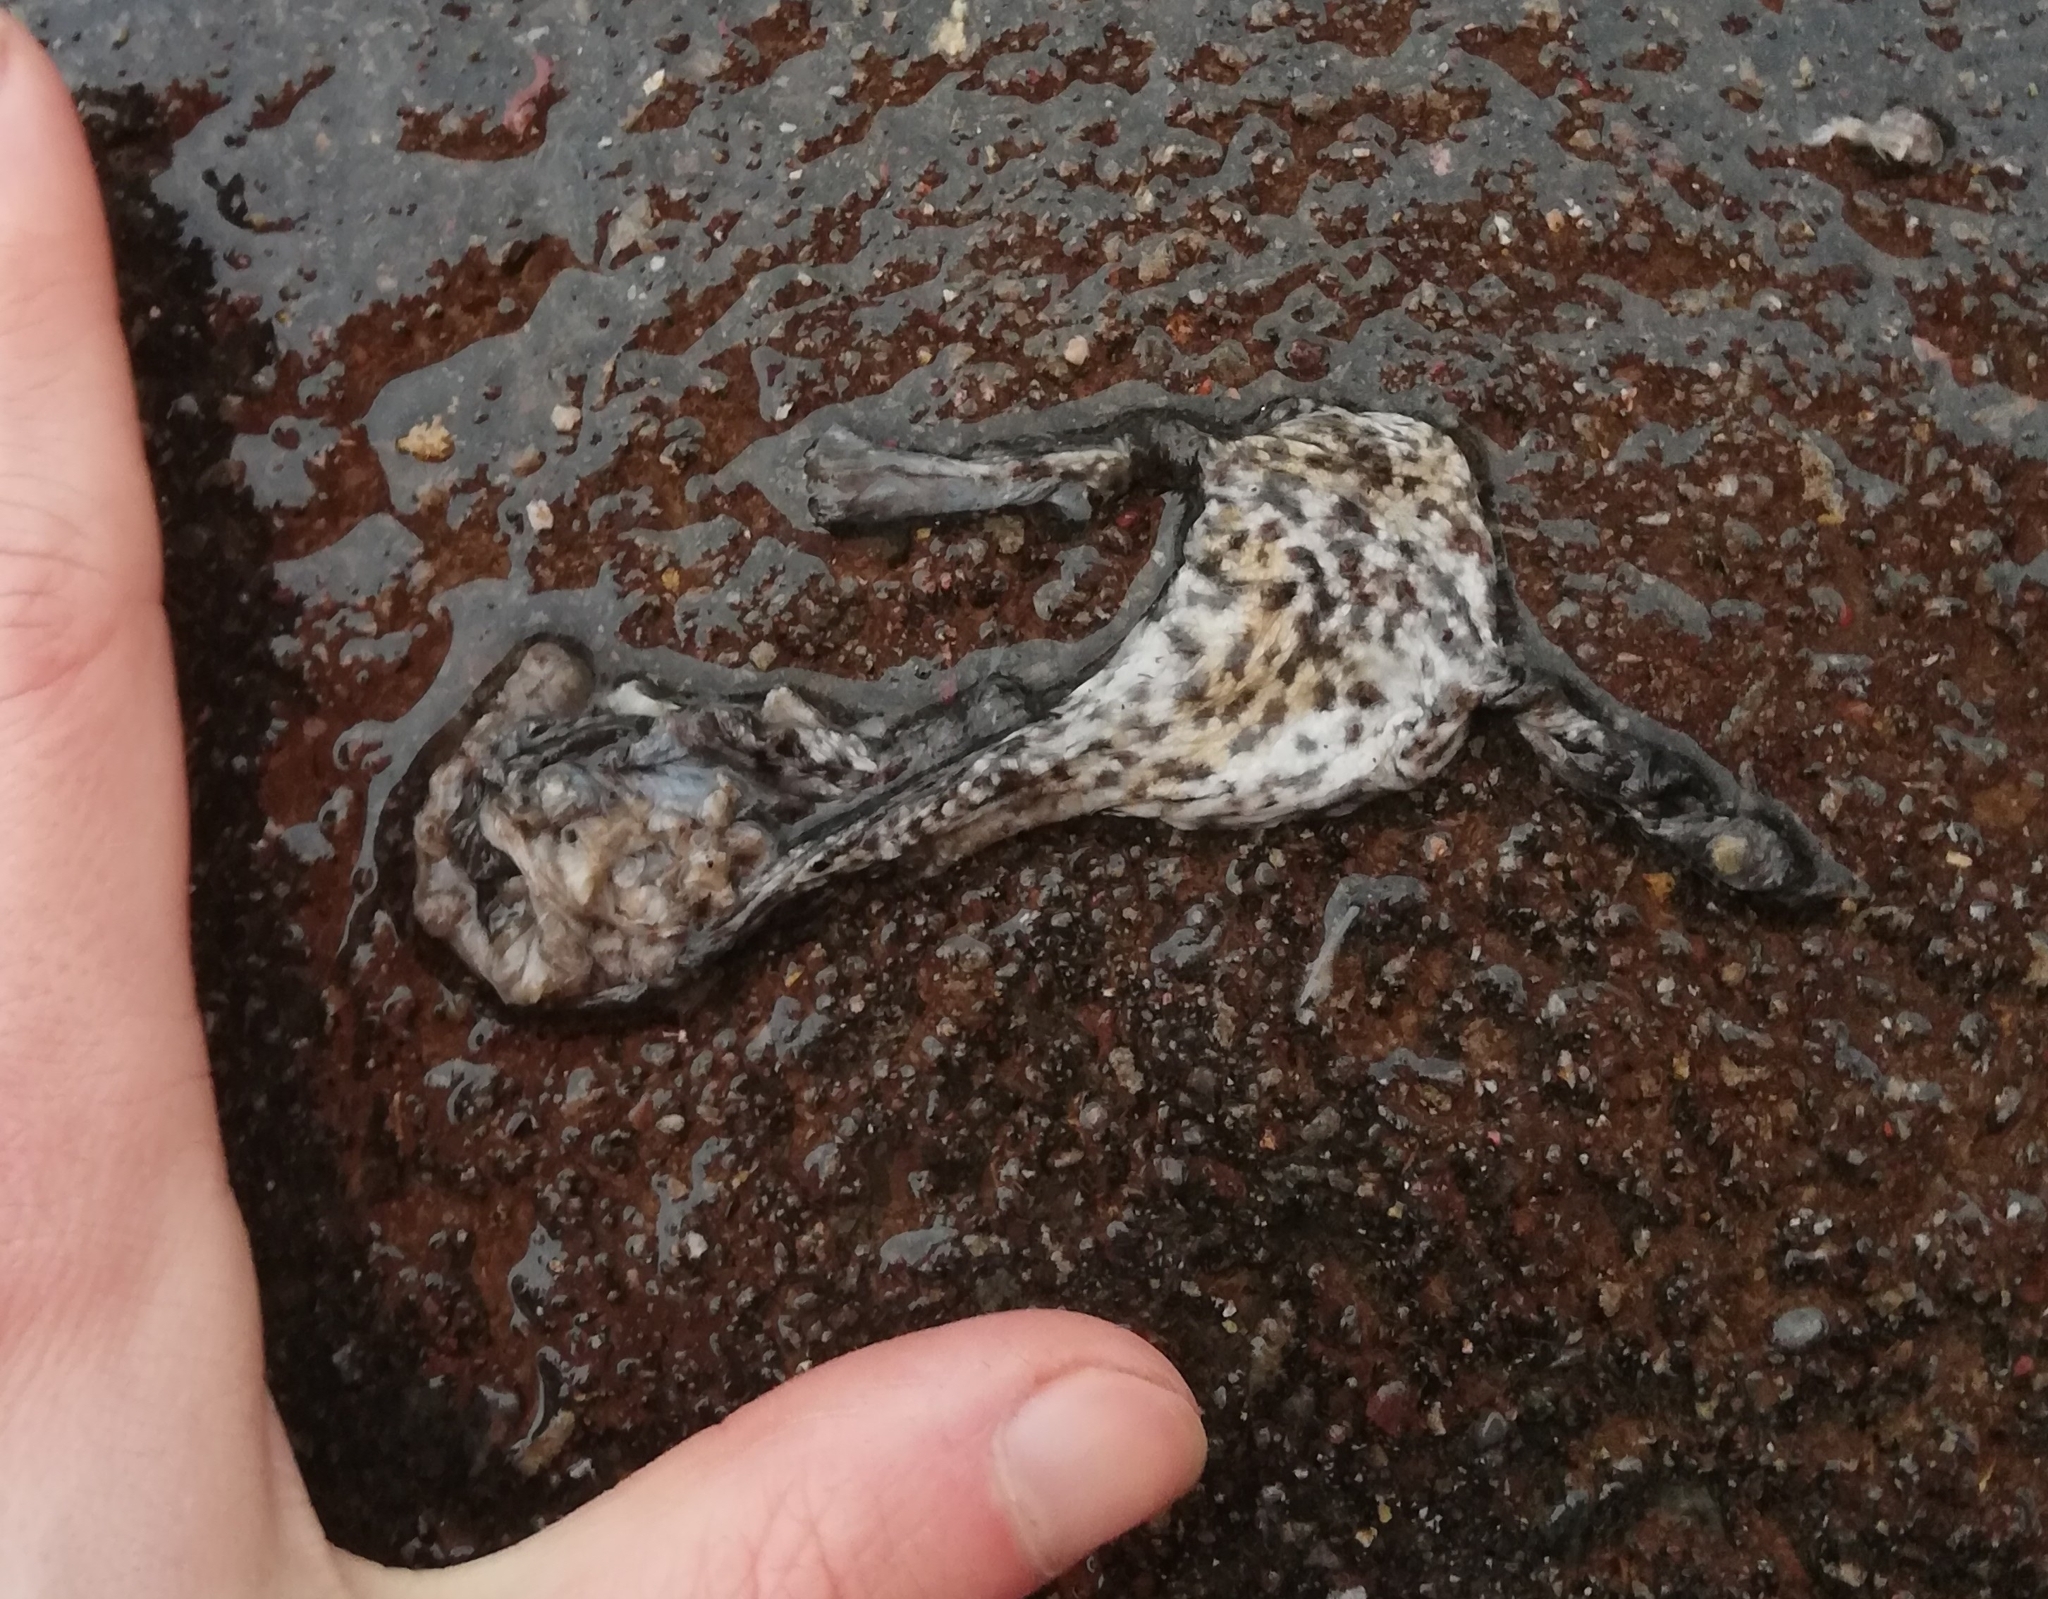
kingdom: Animalia
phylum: Chordata
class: Amphibia
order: Anura
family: Bufonidae
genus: Bufo
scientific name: Bufo bufo
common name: Common toad
